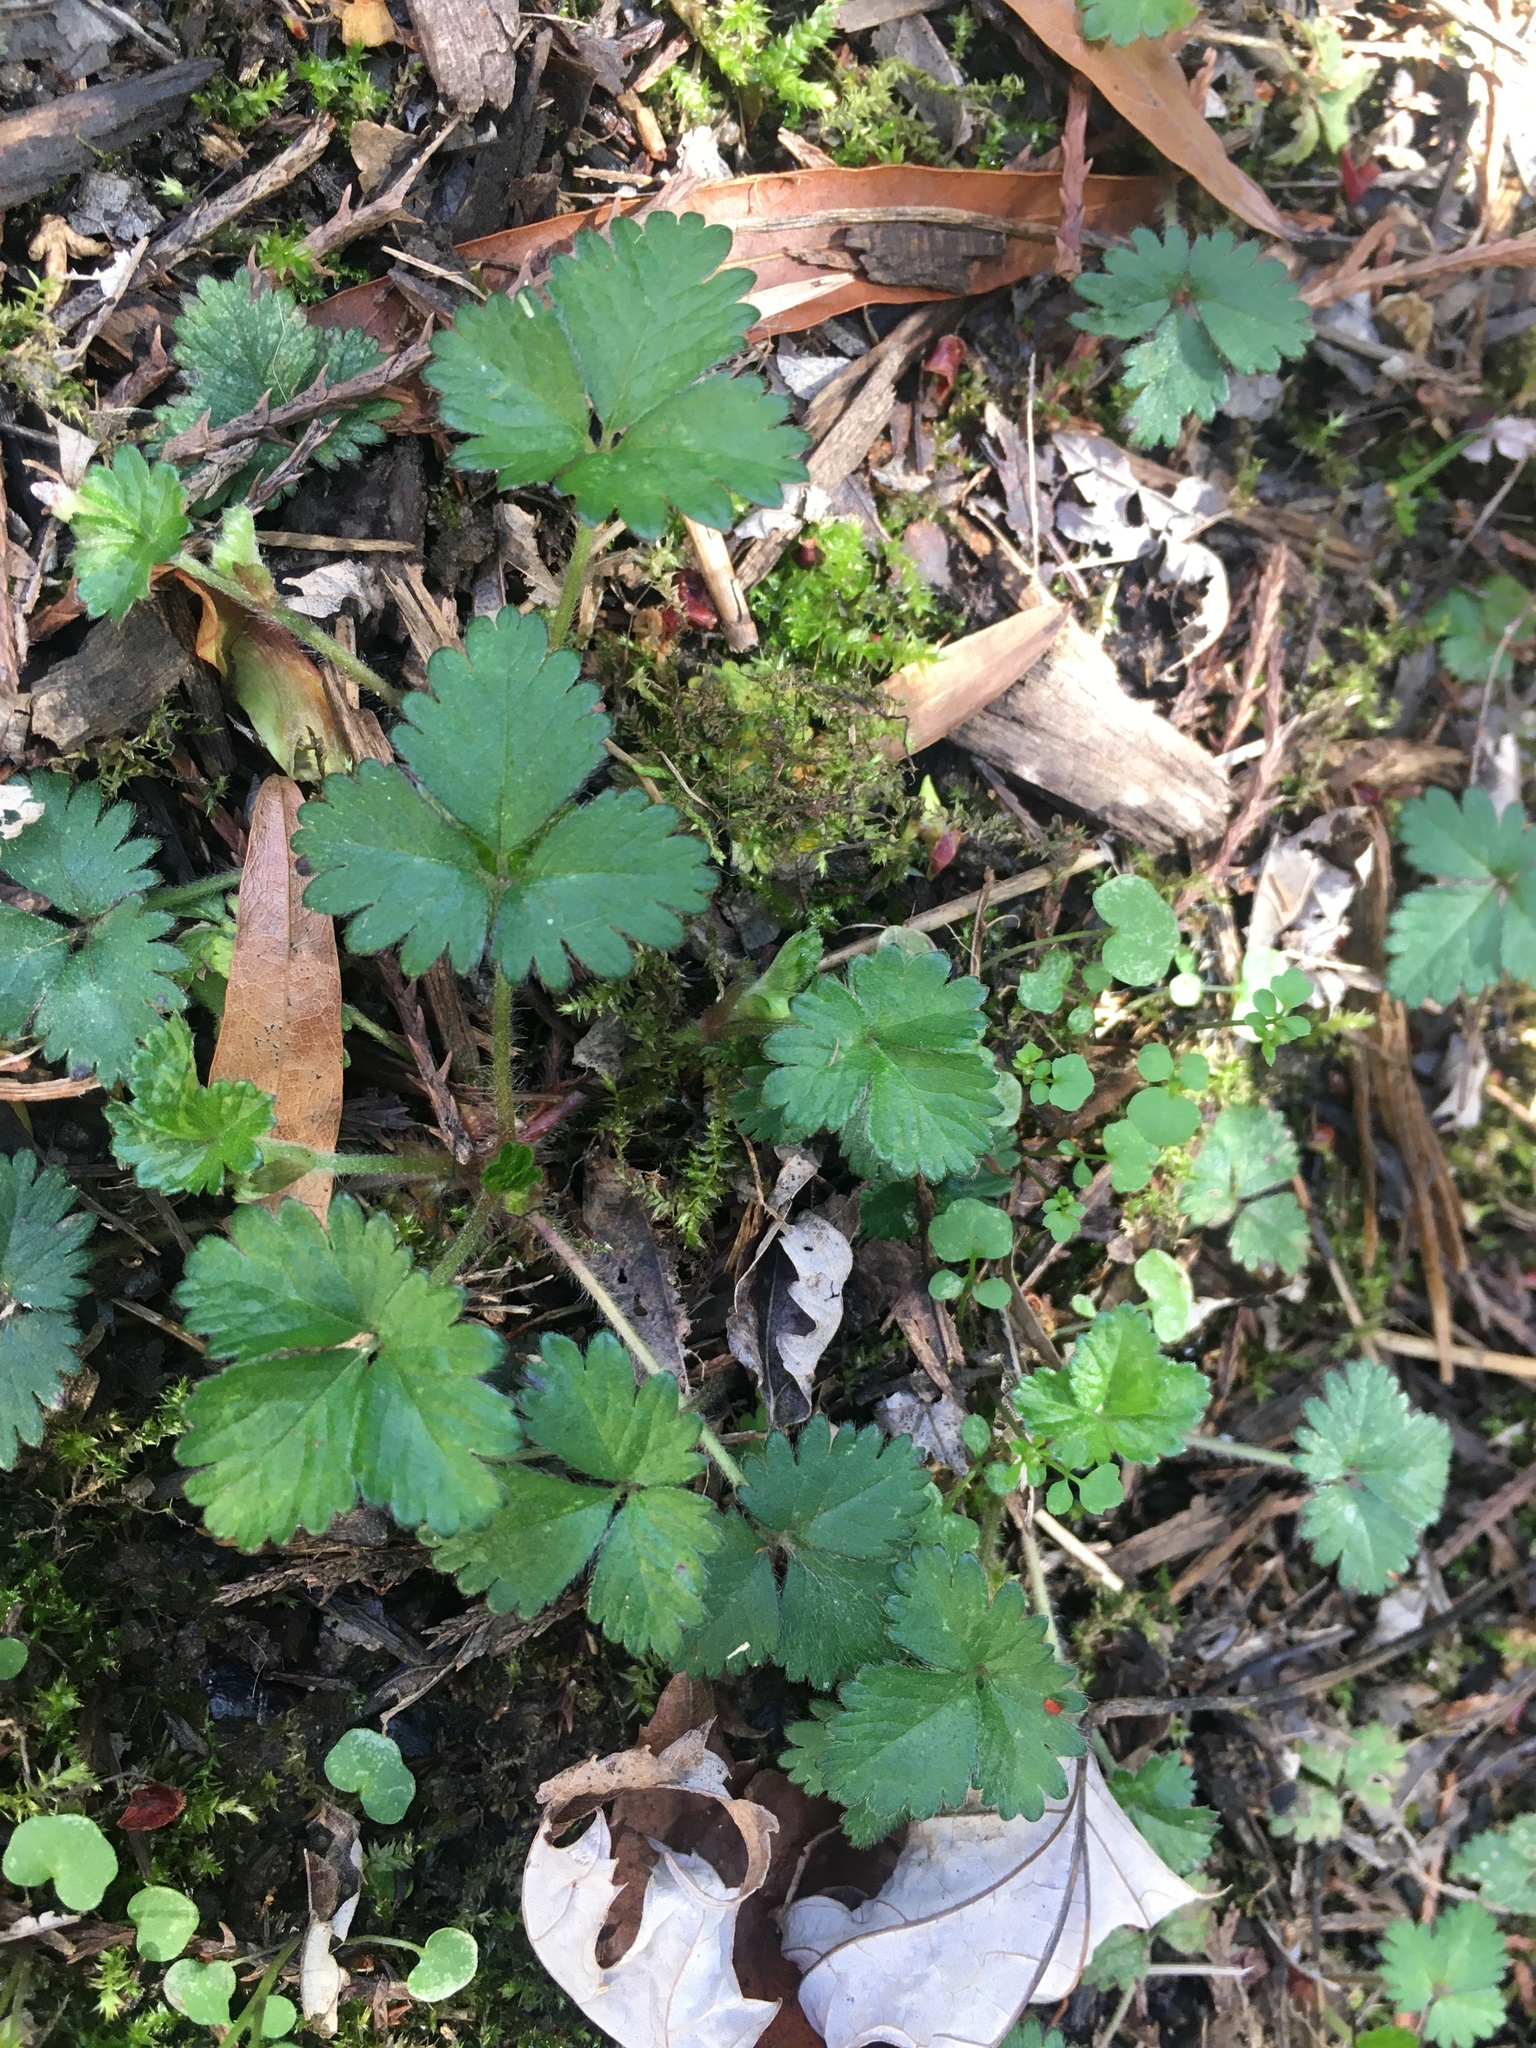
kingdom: Plantae
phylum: Tracheophyta
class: Magnoliopsida
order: Rosales
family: Rosaceae
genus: Potentilla
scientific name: Potentilla indica
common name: Yellow-flowered strawberry
